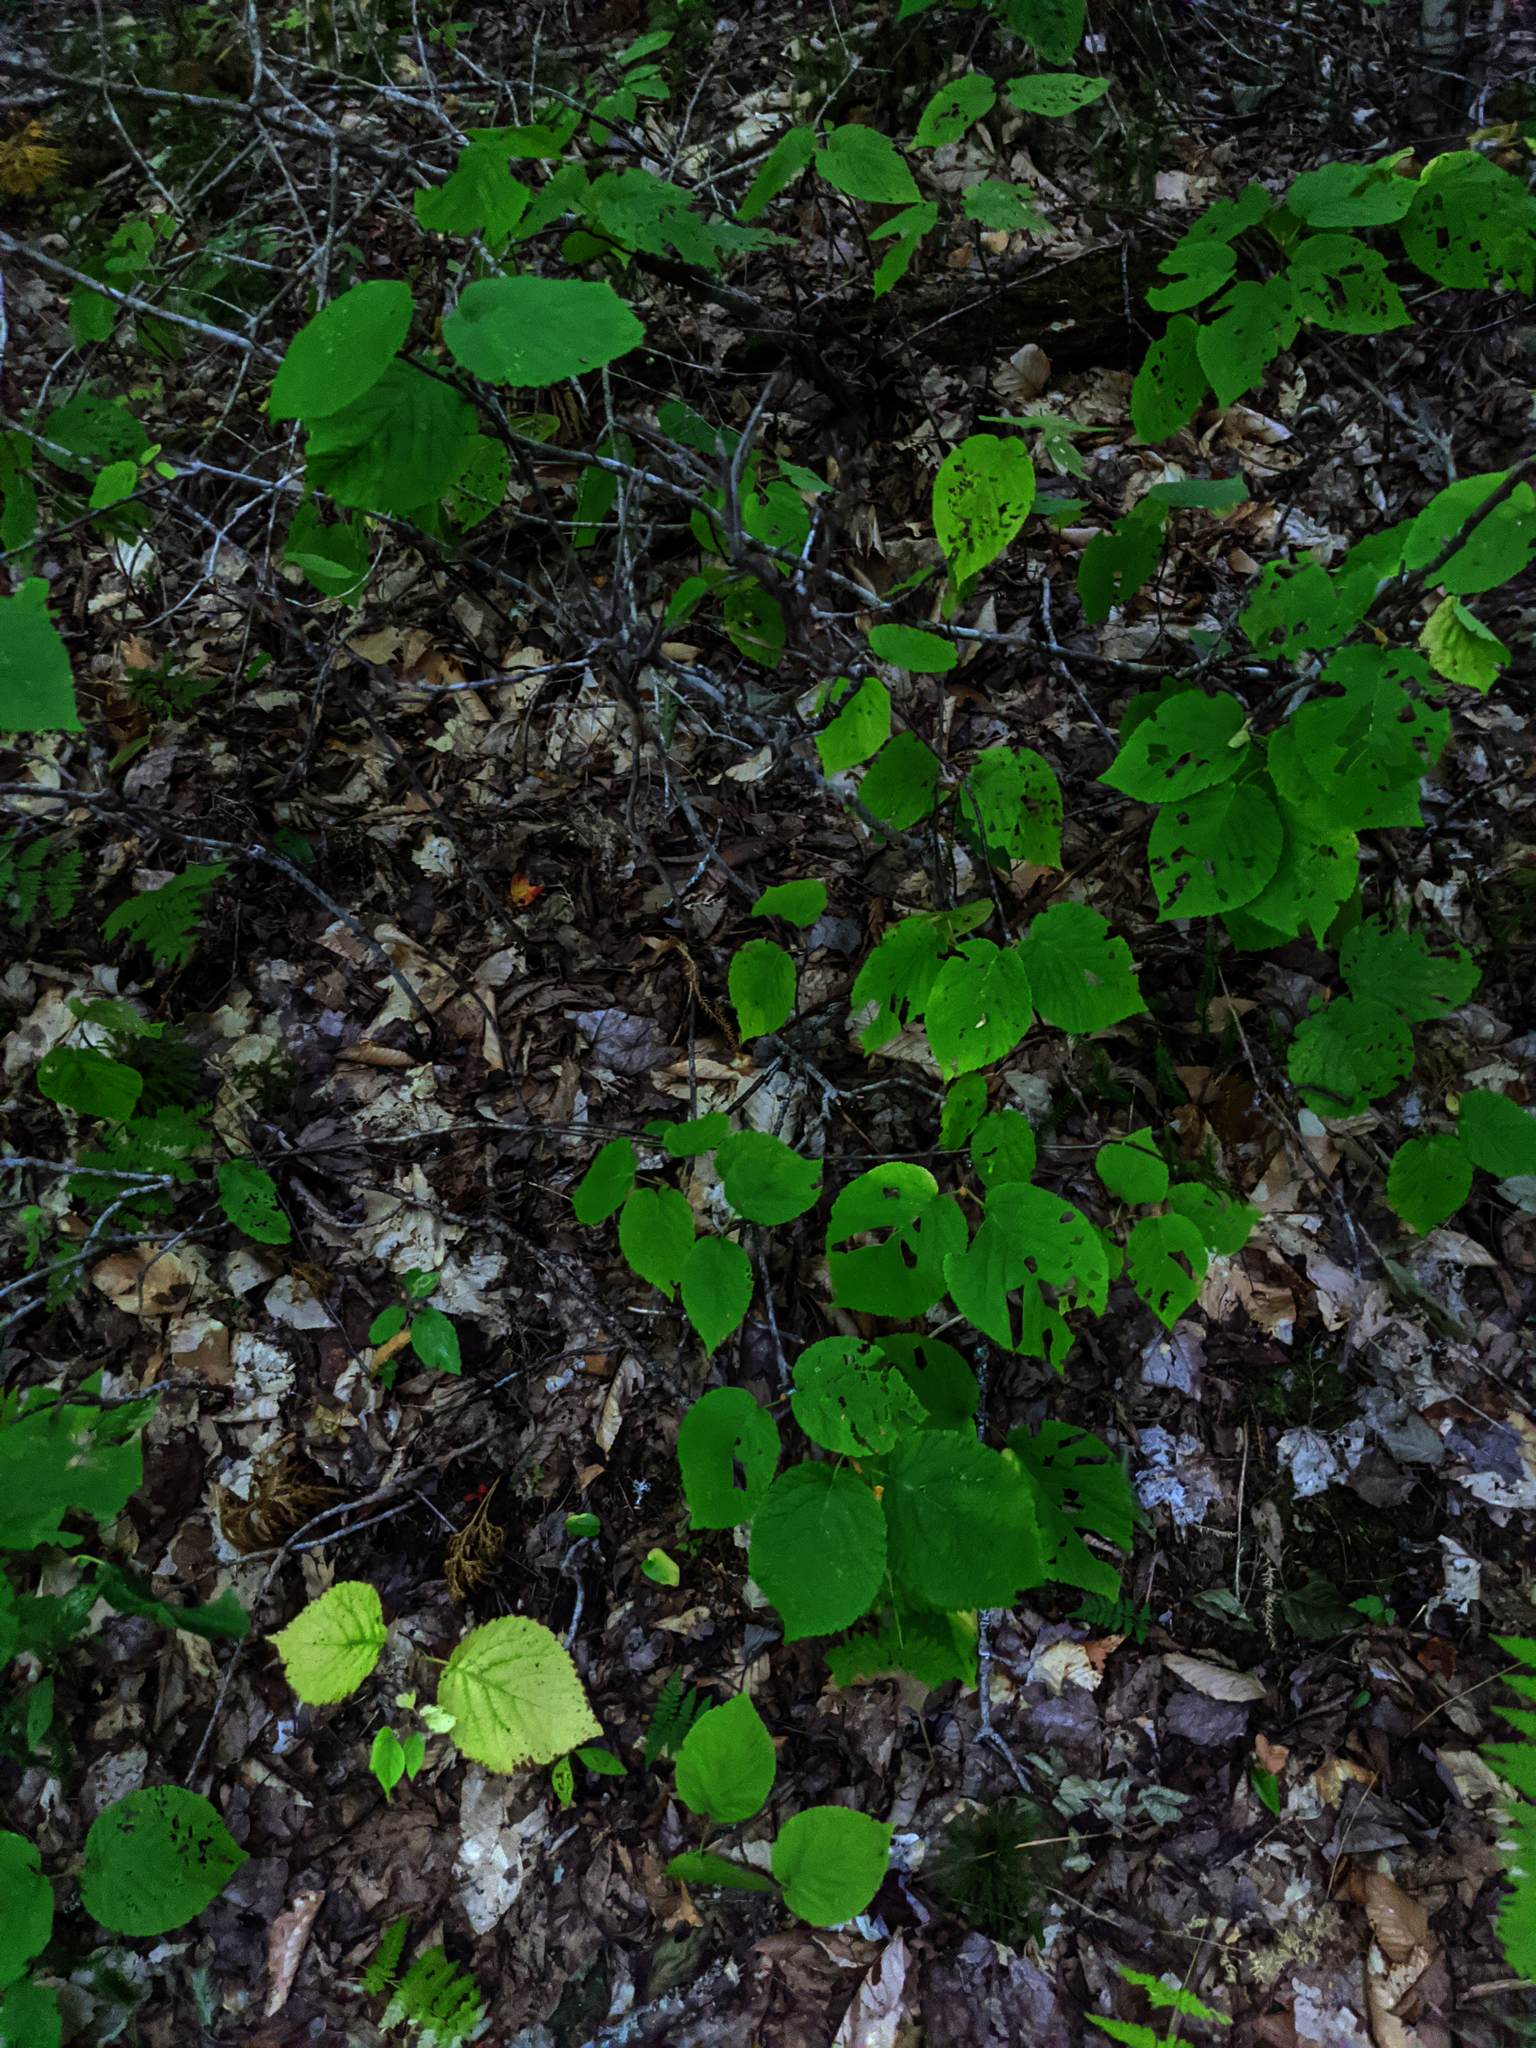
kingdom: Plantae
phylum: Tracheophyta
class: Magnoliopsida
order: Dipsacales
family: Viburnaceae
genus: Viburnum
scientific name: Viburnum lantanoides
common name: Hobblebush
